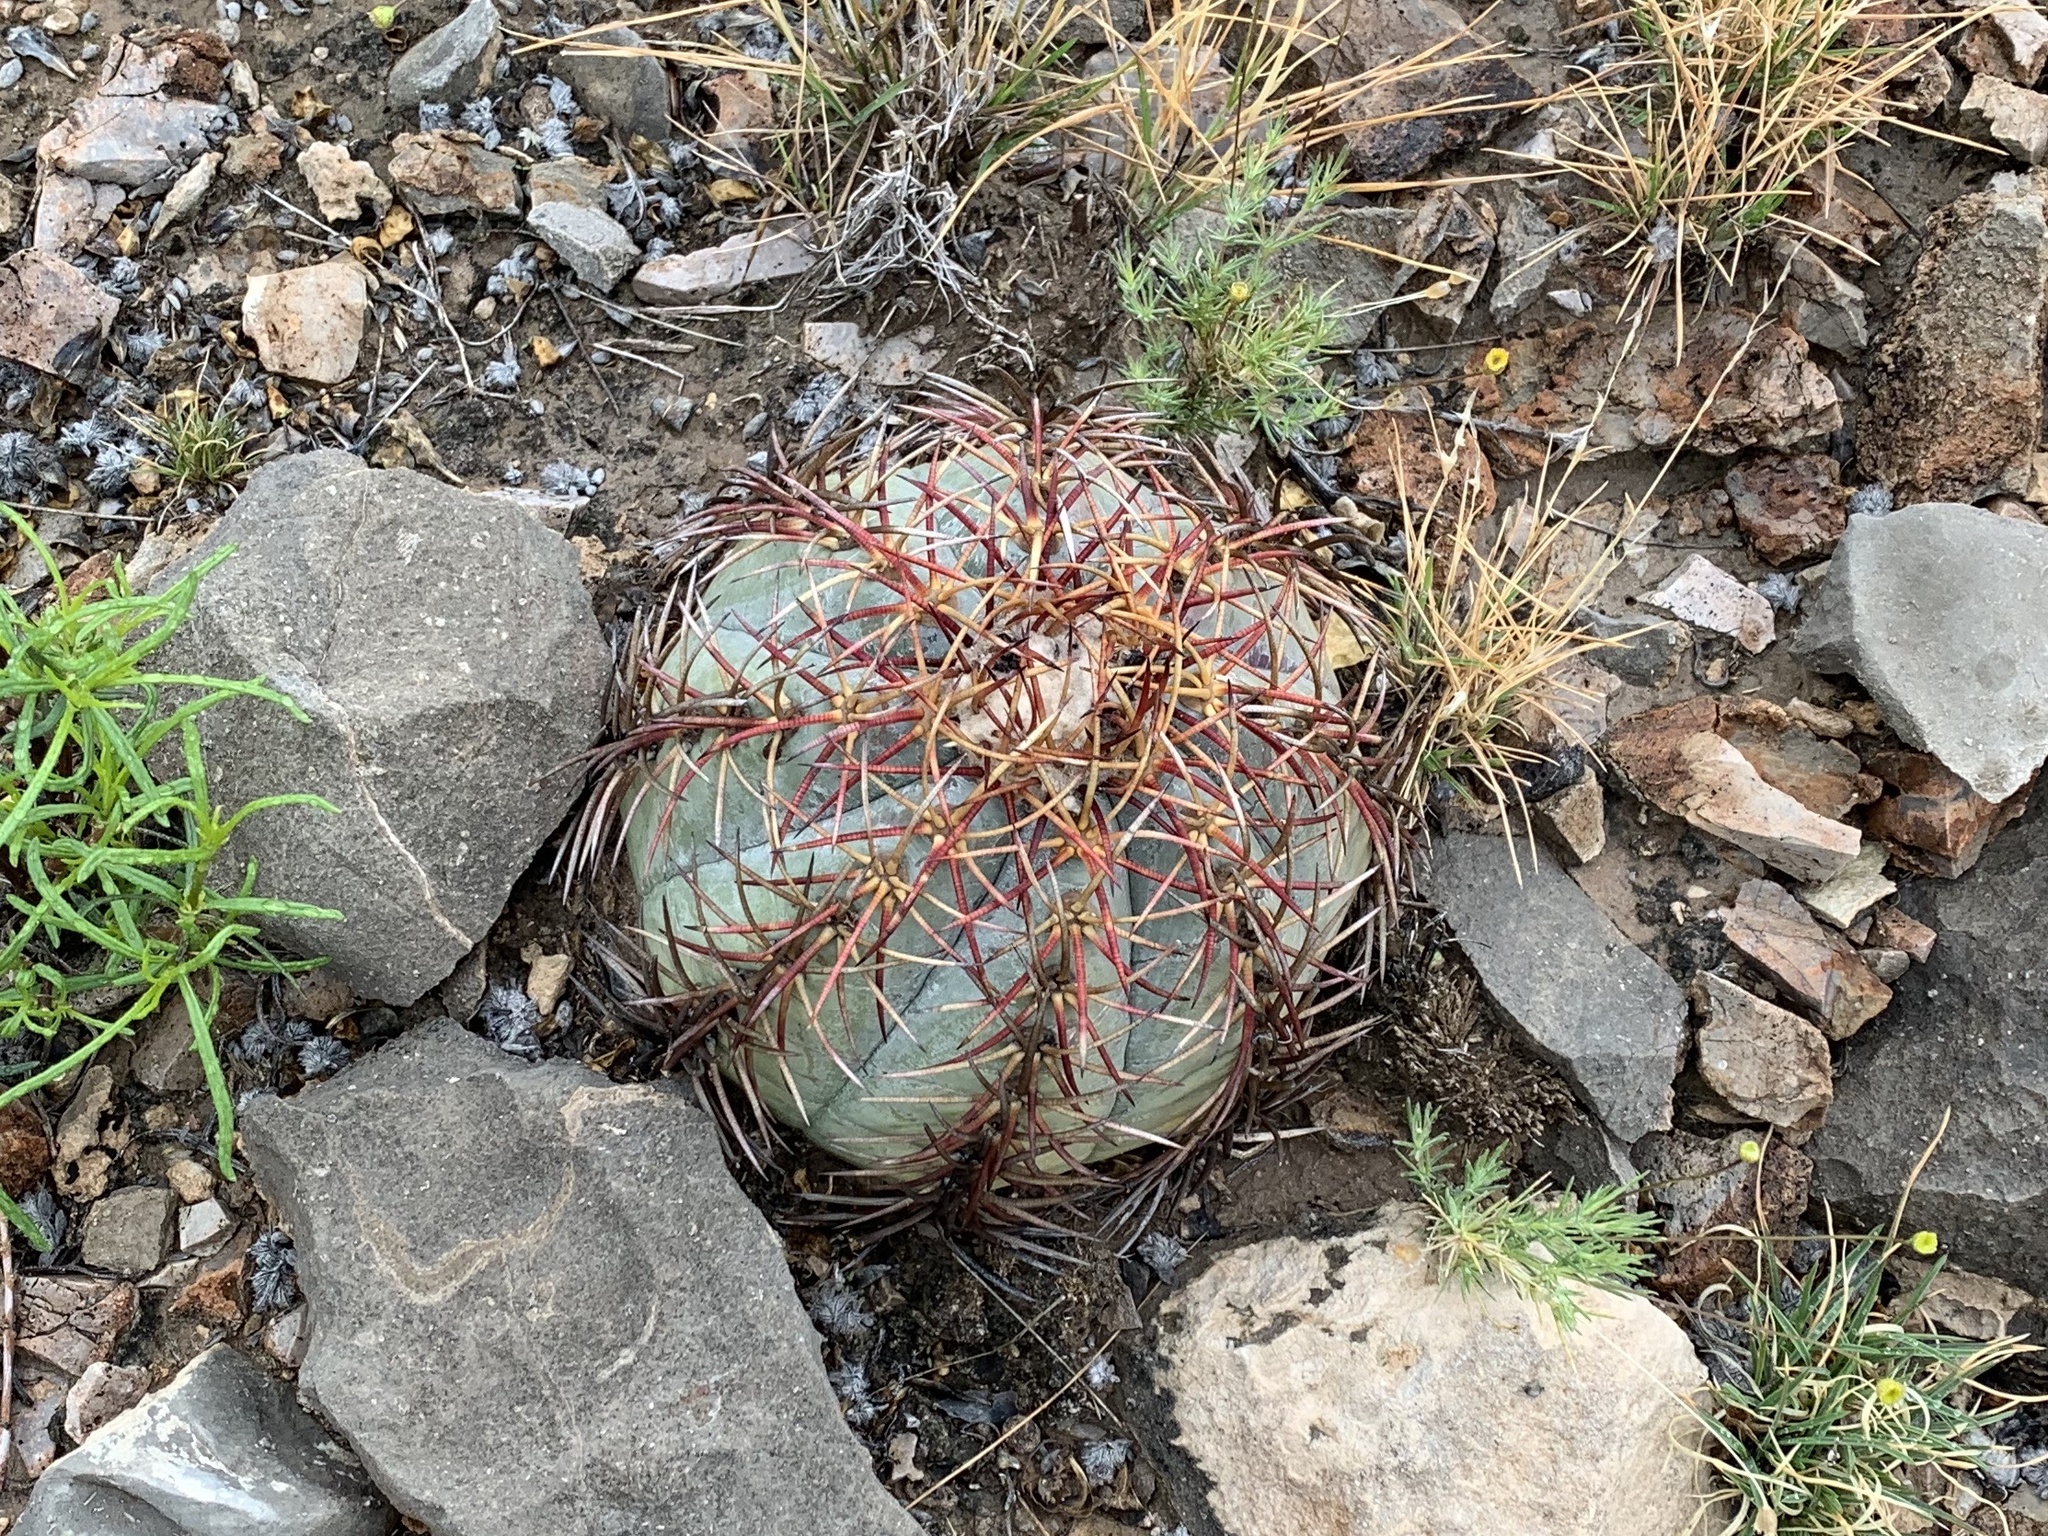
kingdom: Plantae
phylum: Tracheophyta
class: Magnoliopsida
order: Caryophyllales
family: Cactaceae
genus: Echinocactus
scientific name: Echinocactus horizonthalonius
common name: Devilshead
